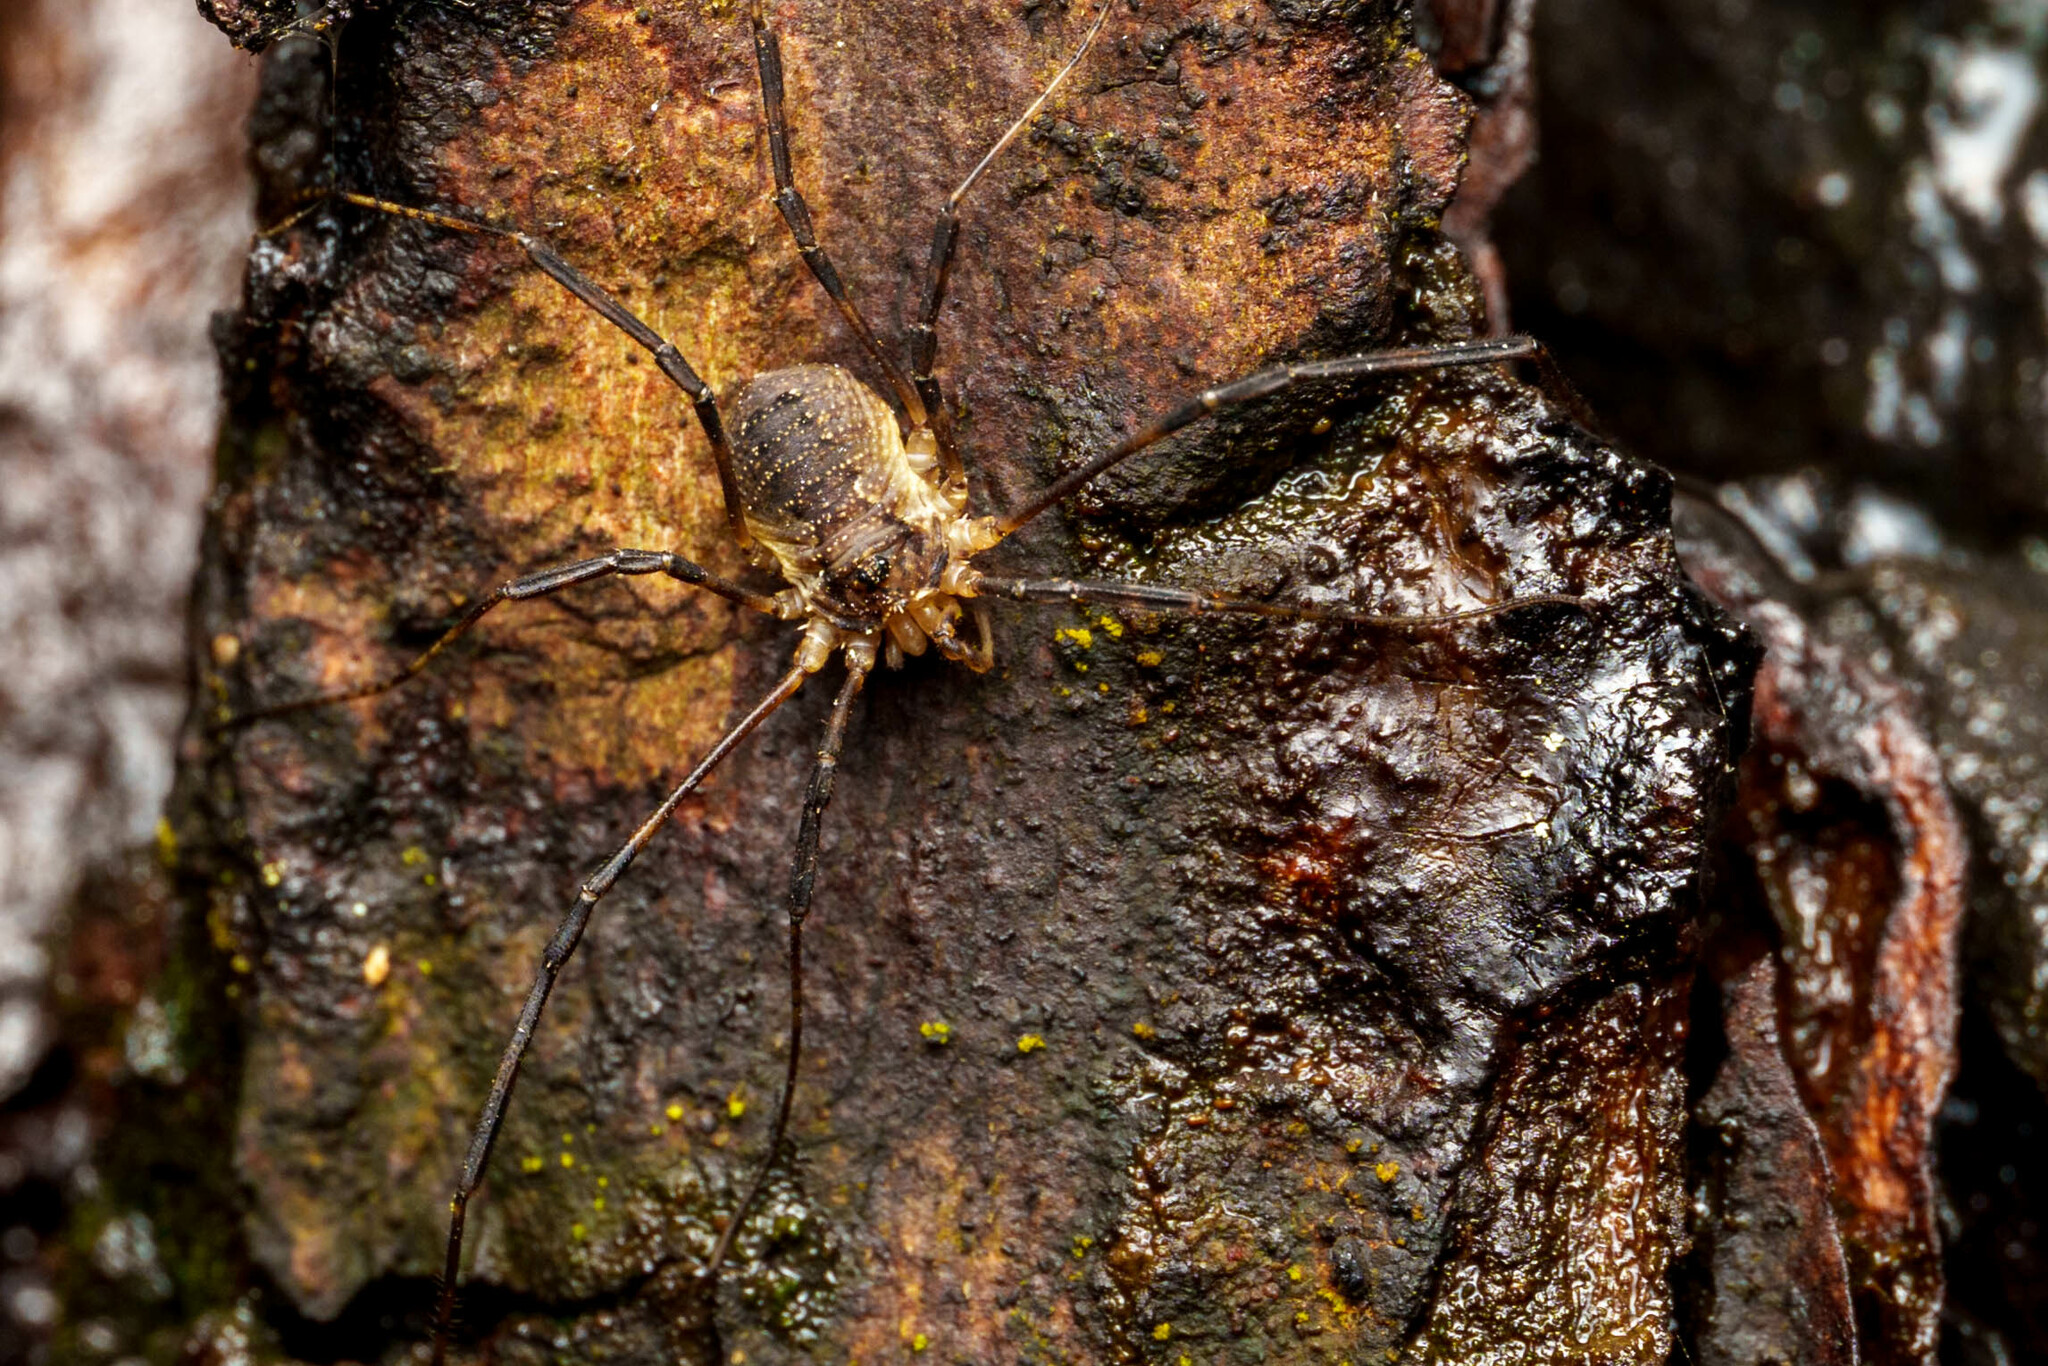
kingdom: Animalia
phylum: Arthropoda
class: Arachnida
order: Opiliones
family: Phalangiidae
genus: Oligolophus
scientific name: Oligolophus hansenii
